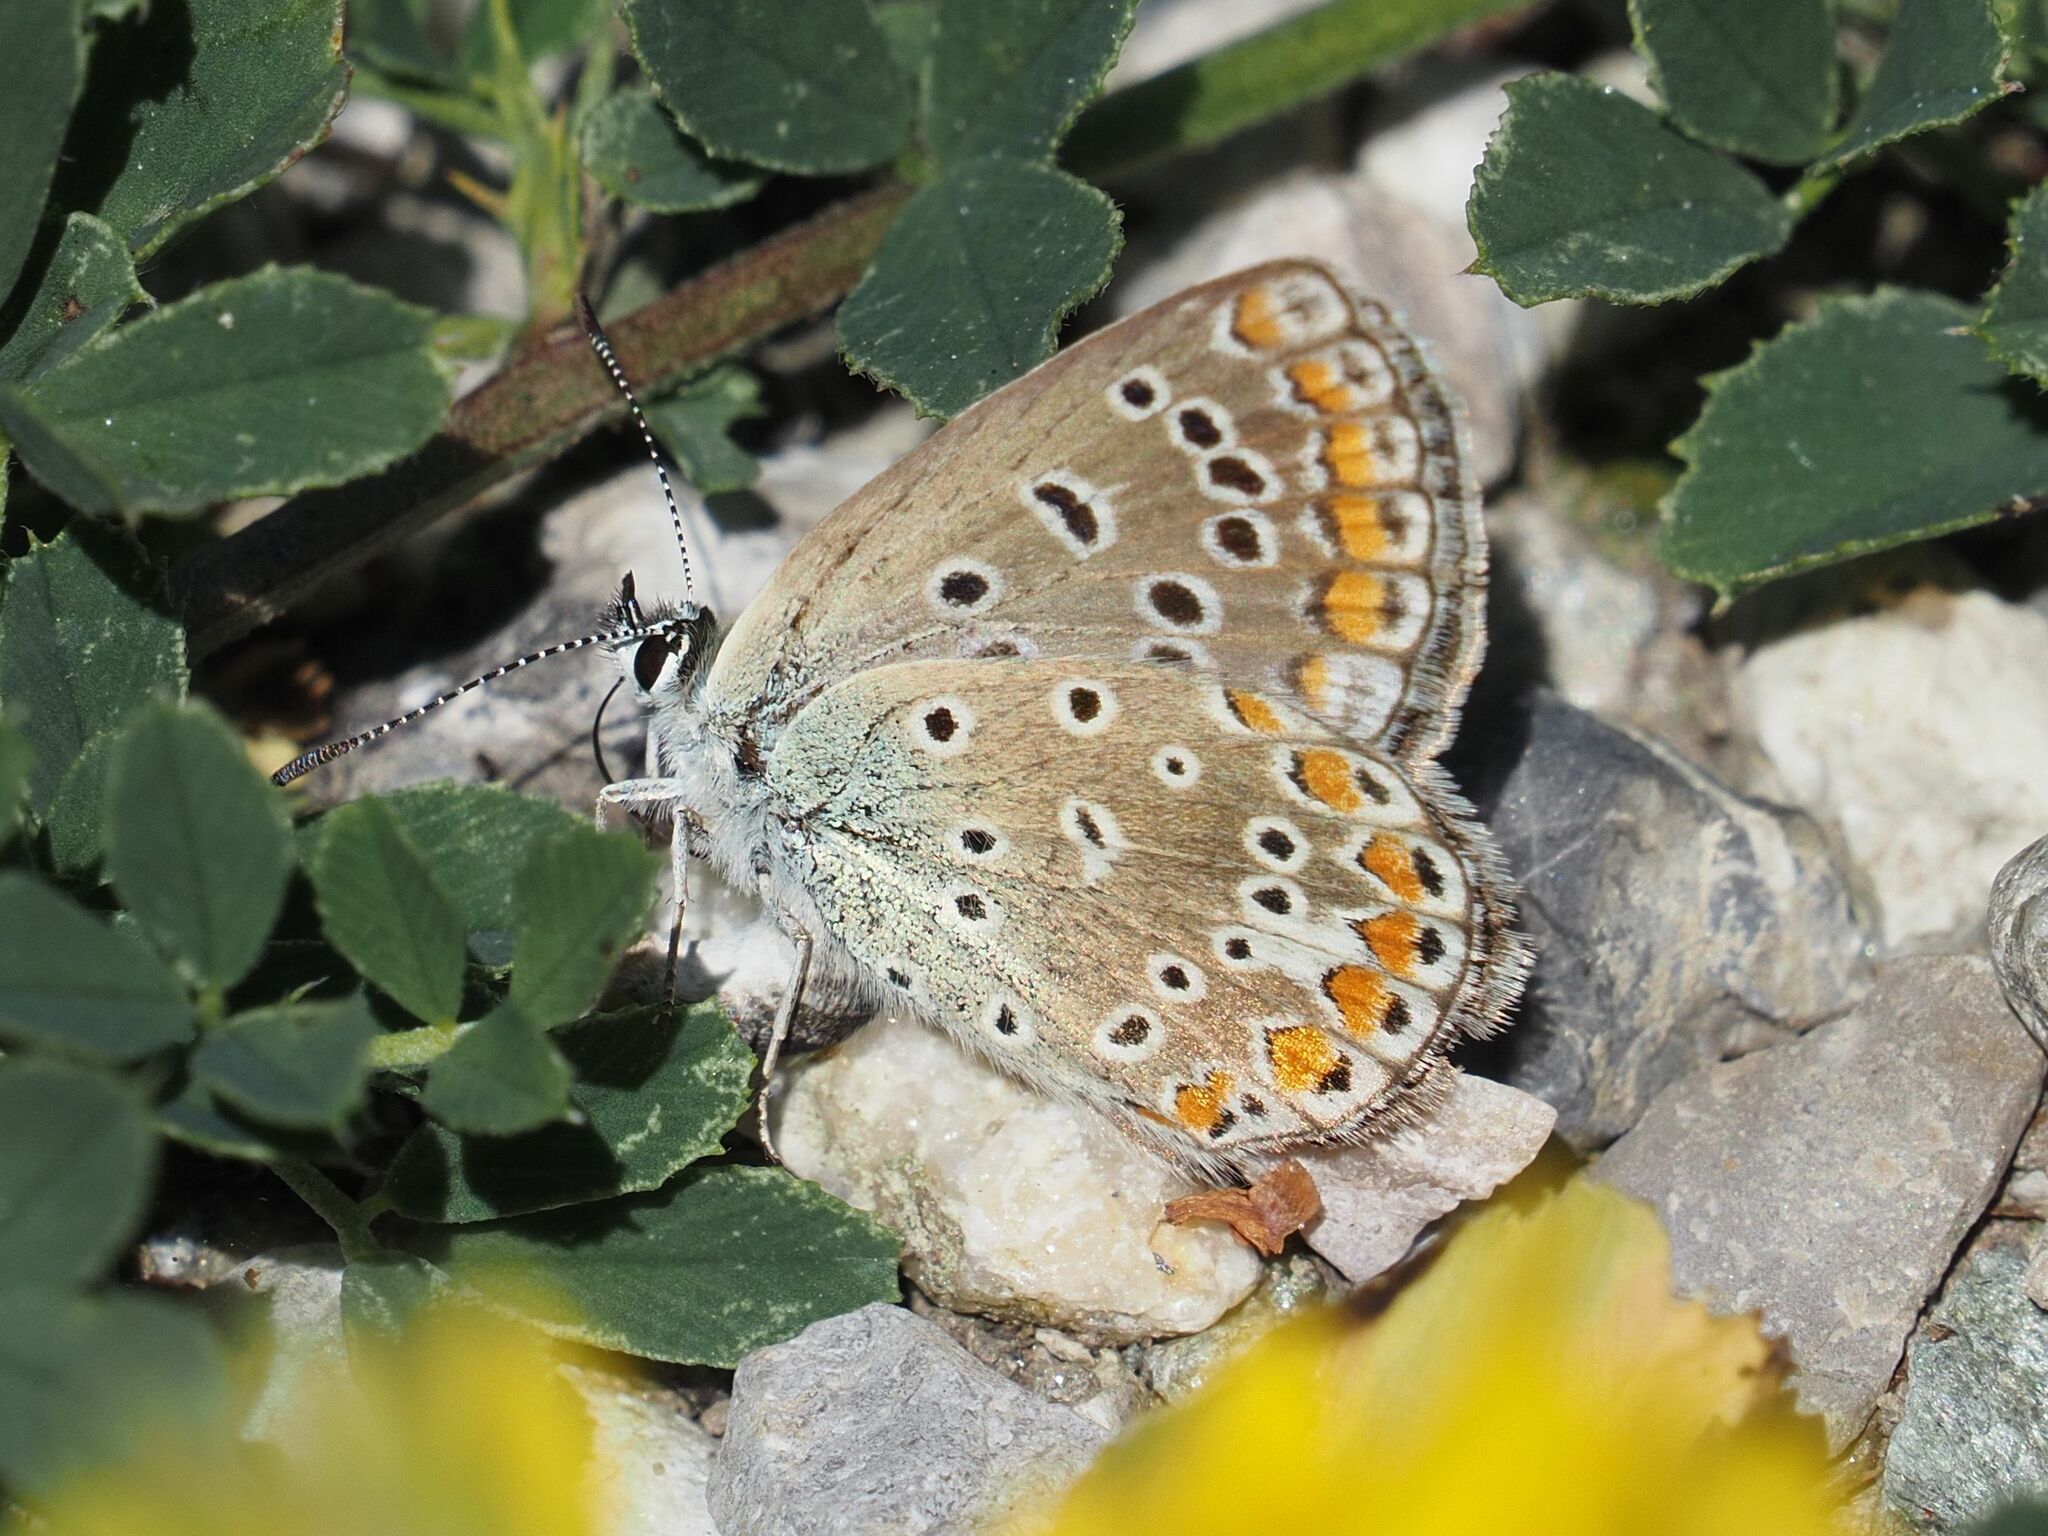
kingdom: Animalia
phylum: Arthropoda
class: Insecta
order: Lepidoptera
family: Lycaenidae
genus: Polyommatus
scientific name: Polyommatus icarus
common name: Common blue
